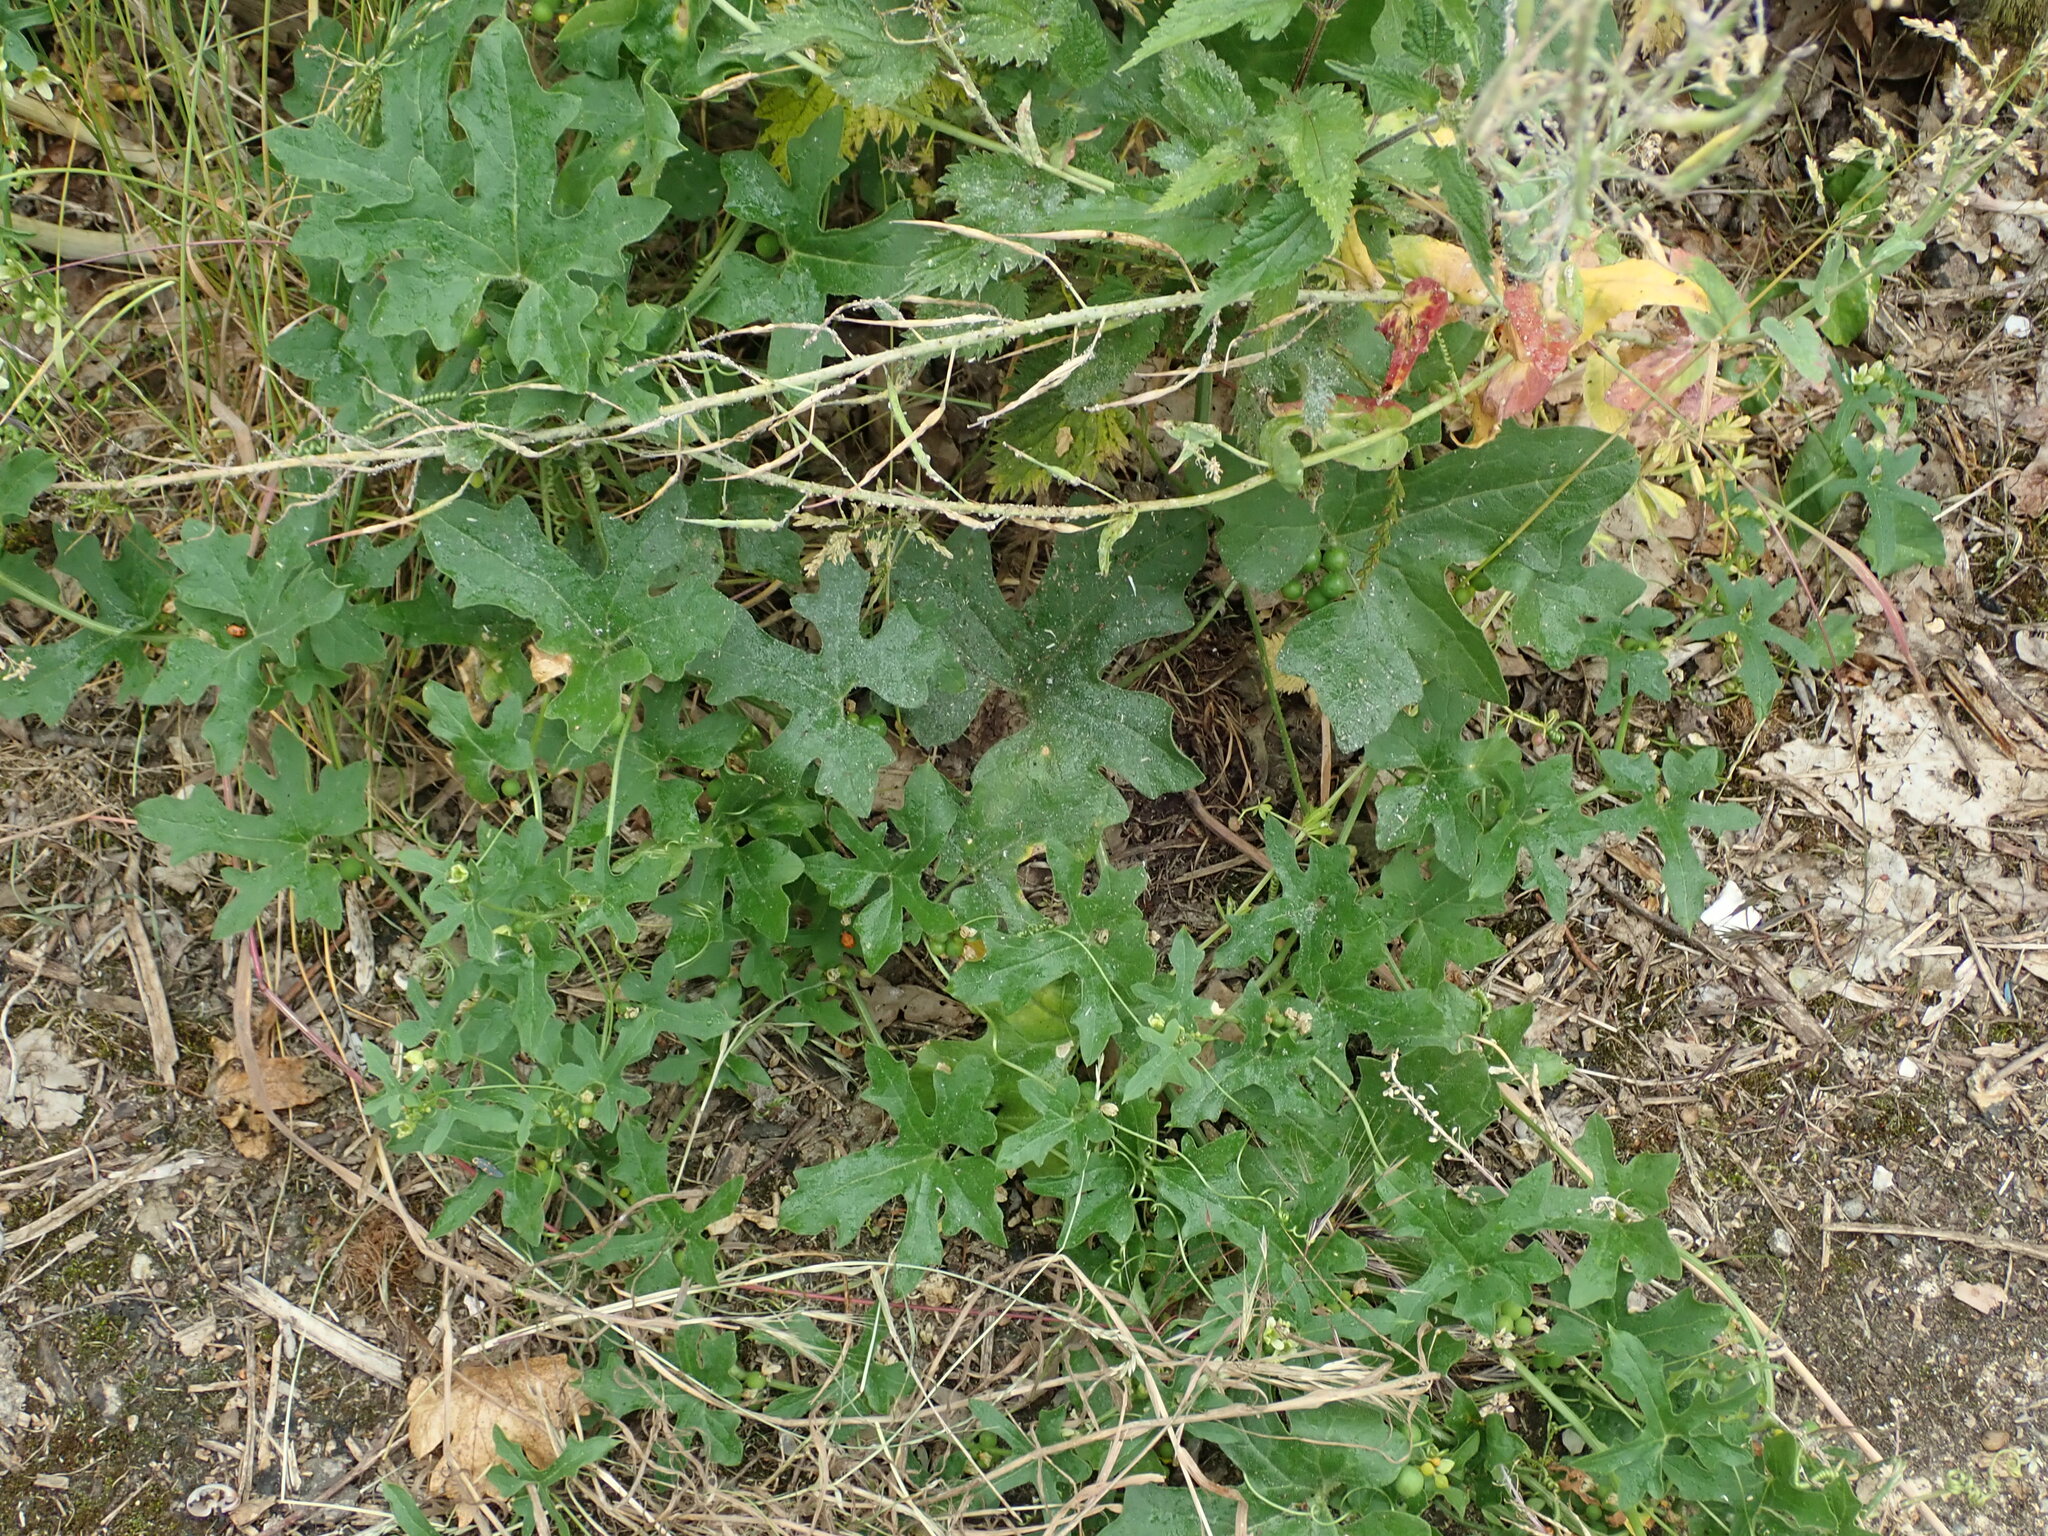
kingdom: Plantae
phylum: Tracheophyta
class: Magnoliopsida
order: Cucurbitales
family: Cucurbitaceae
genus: Bryonia
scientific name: Bryonia cretica
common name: Cretan bryony
